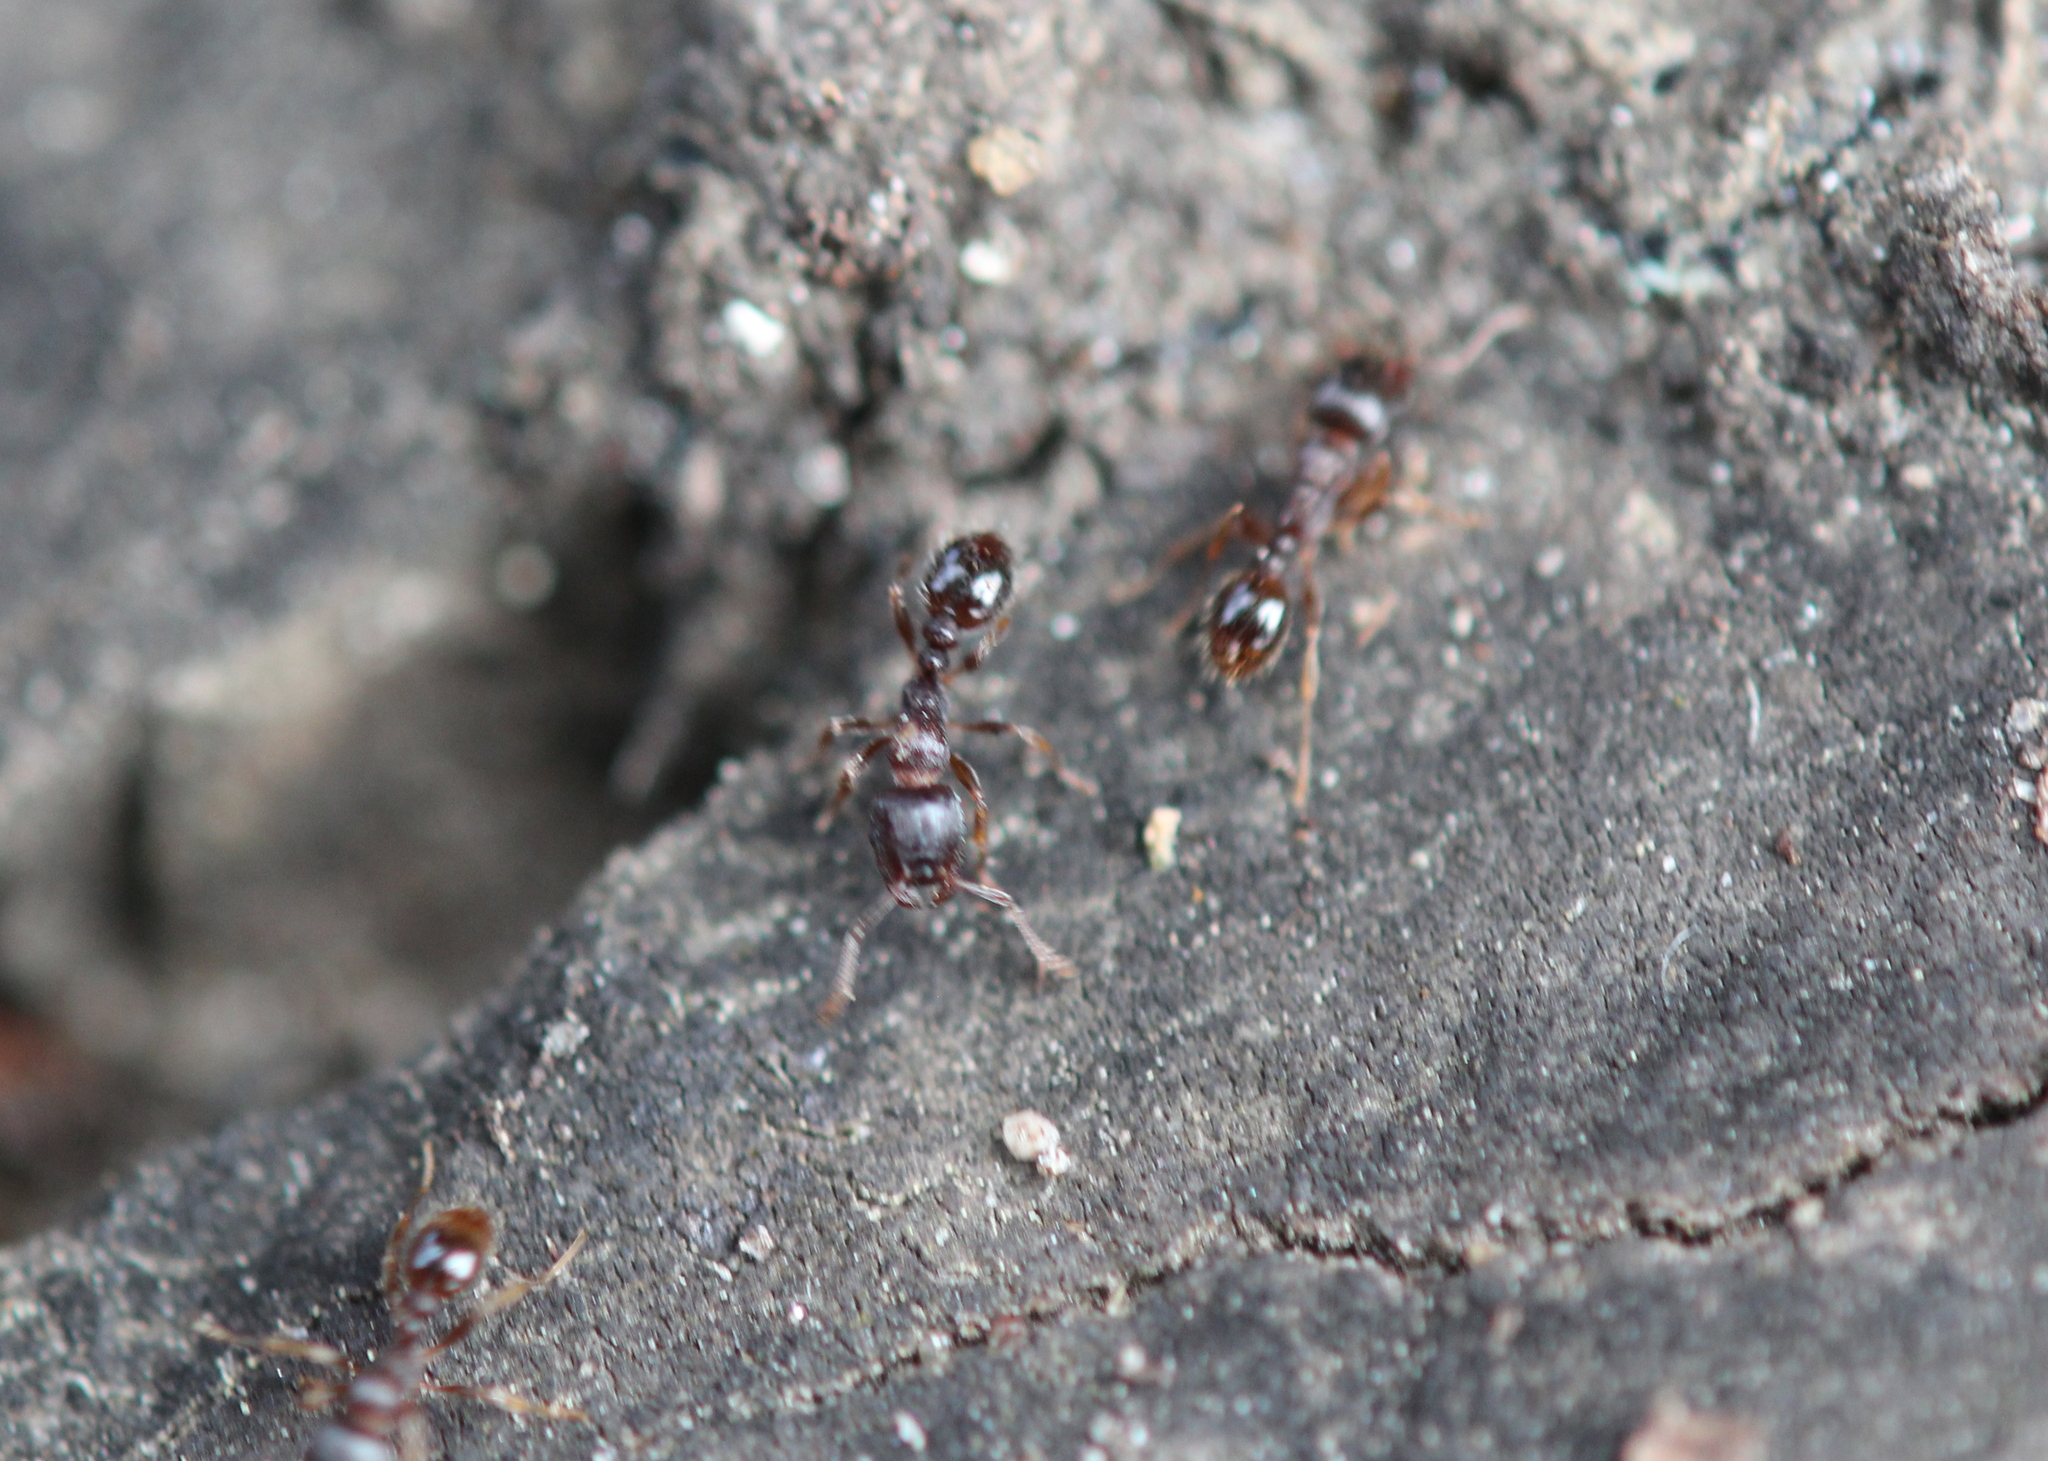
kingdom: Animalia
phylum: Arthropoda
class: Insecta
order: Hymenoptera
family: Formicidae
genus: Tetramorium
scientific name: Tetramorium immigrans
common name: Pavement ant
